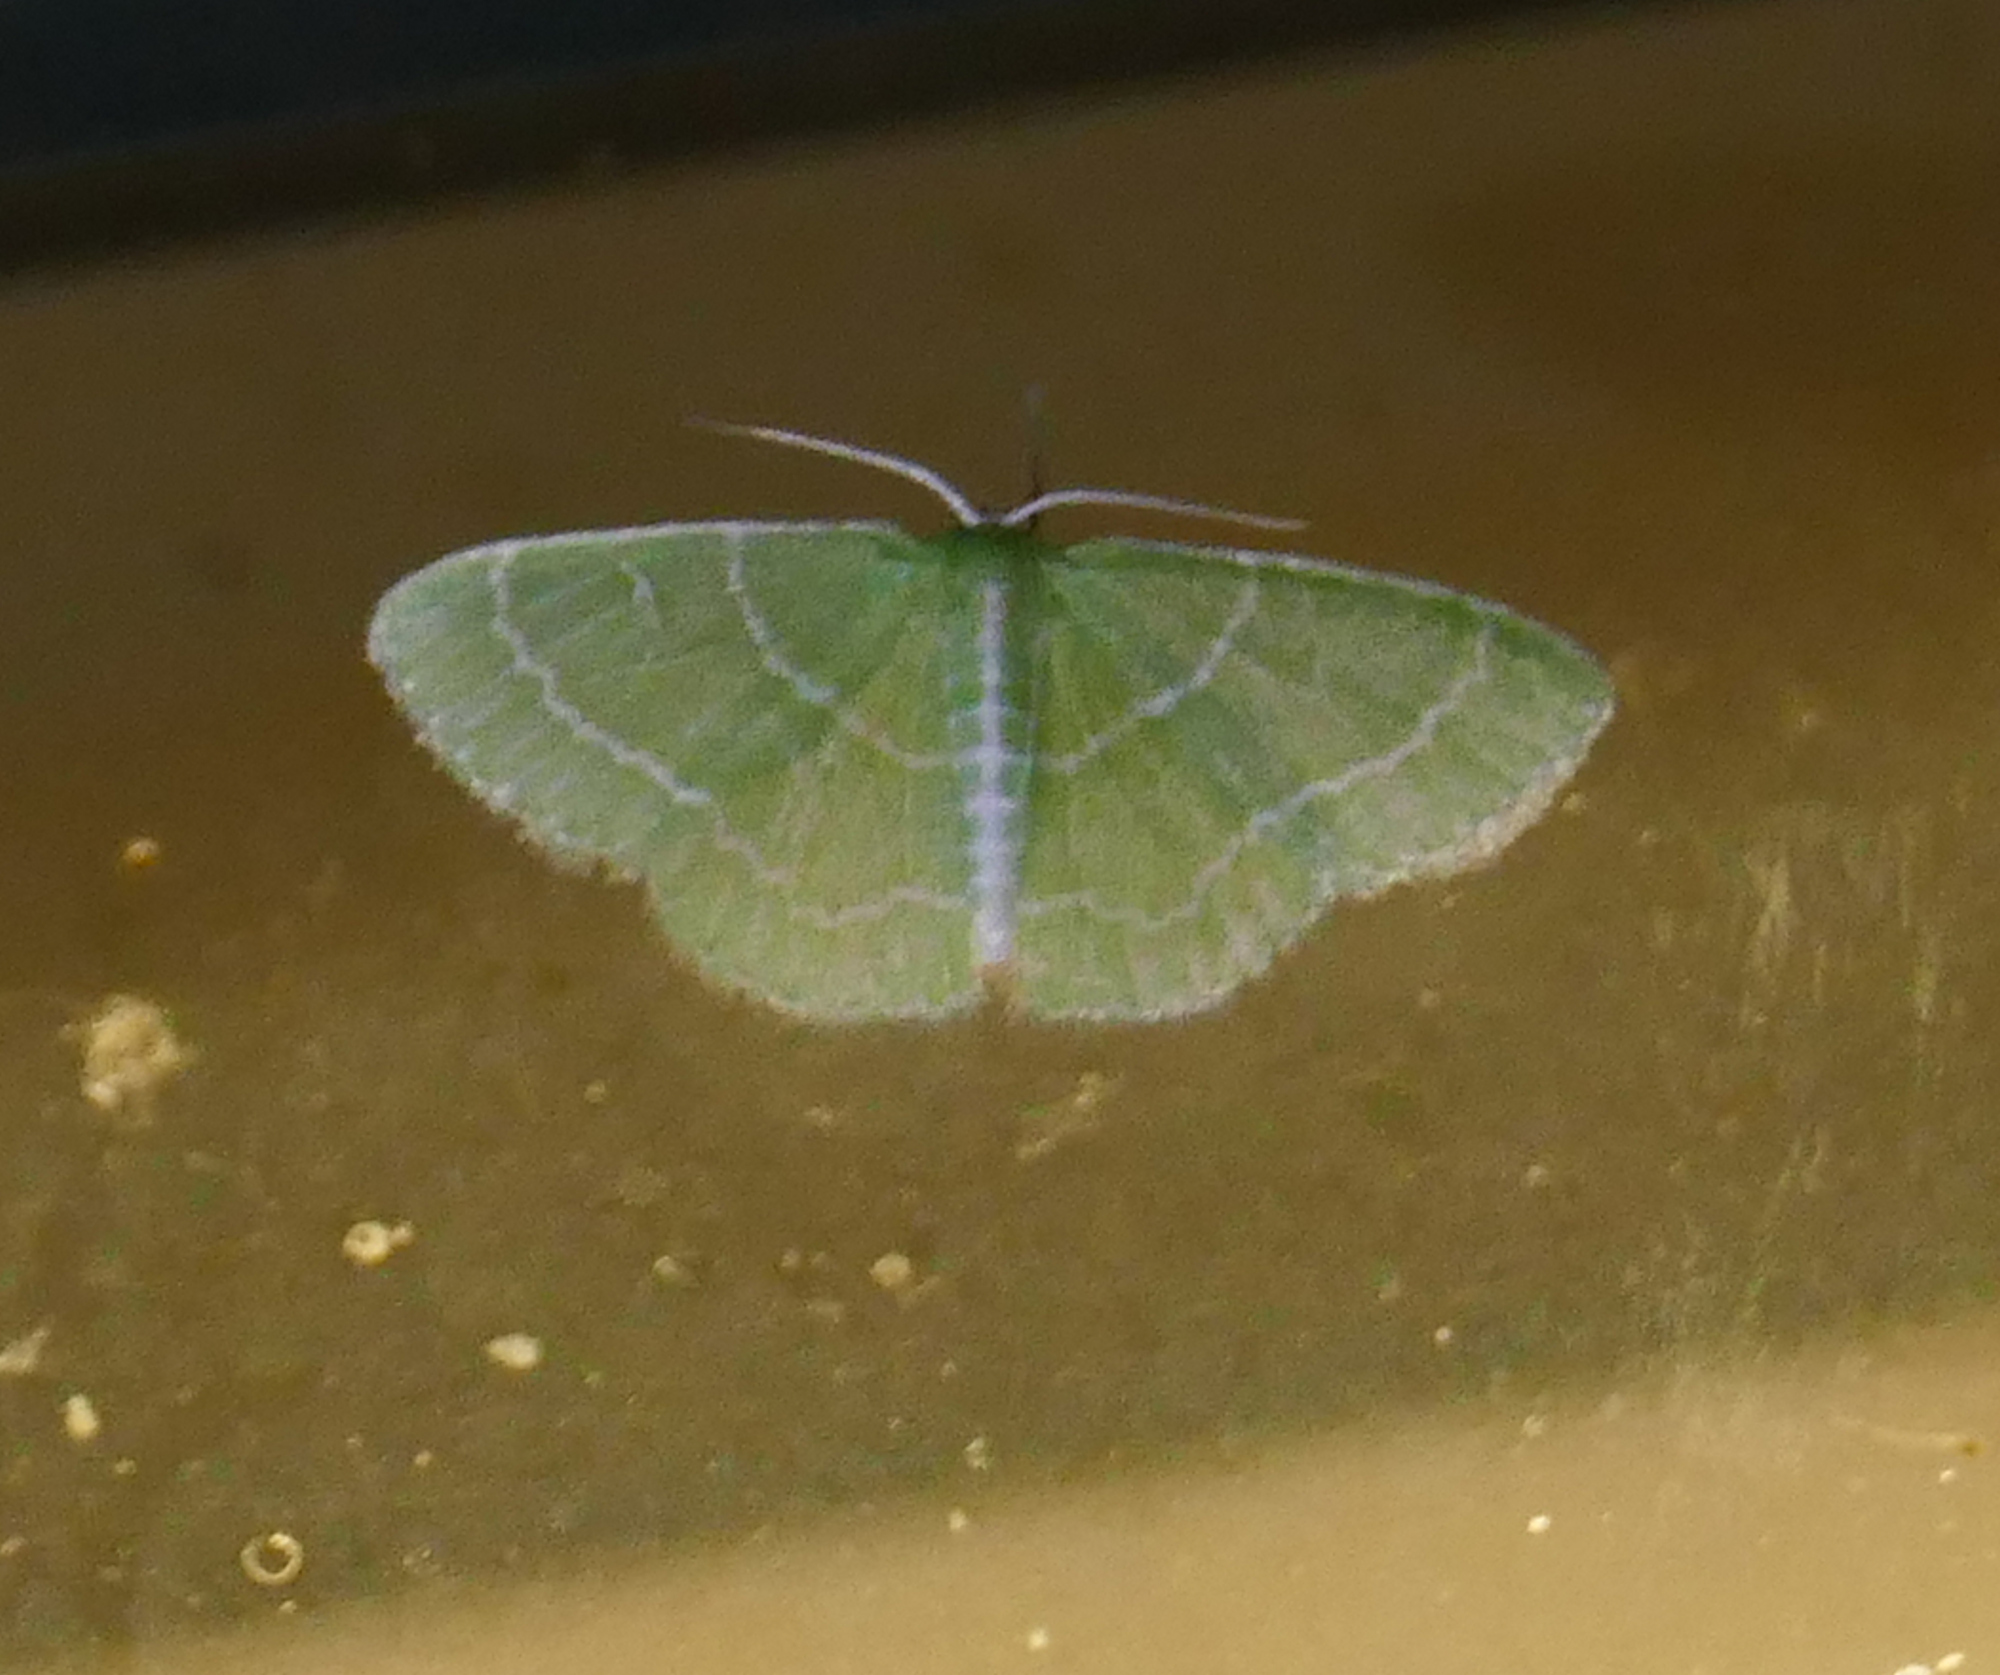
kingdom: Animalia
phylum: Arthropoda
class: Insecta
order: Lepidoptera
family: Geometridae
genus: Synchlora
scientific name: Synchlora aerata
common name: Wavy-lined emerald
